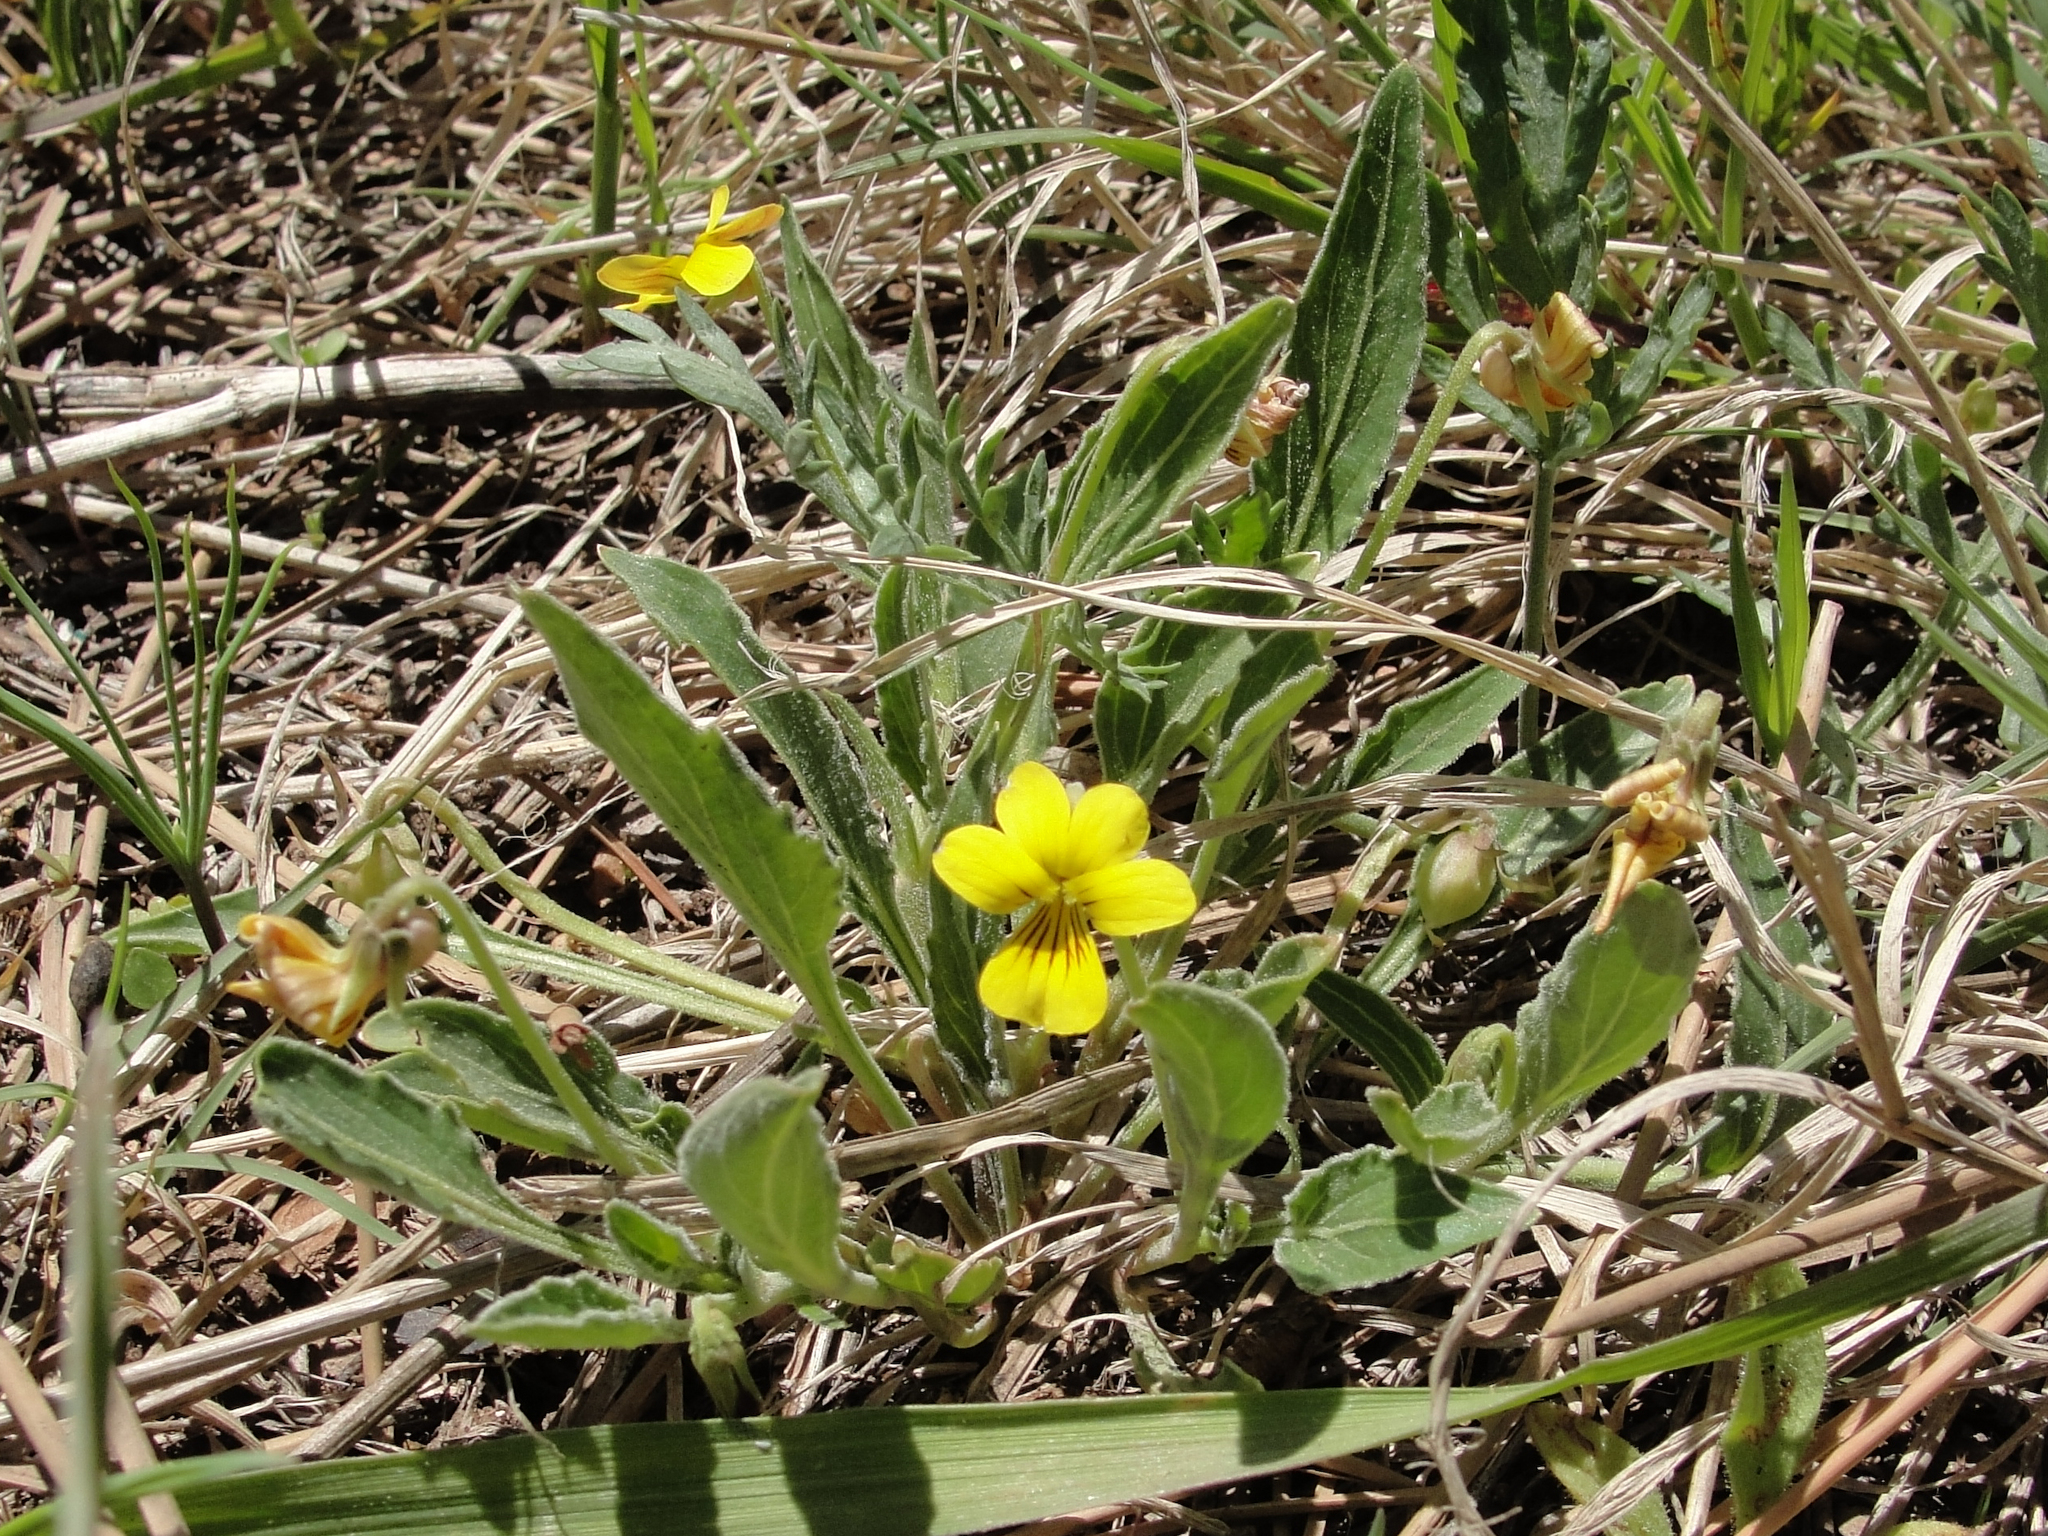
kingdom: Plantae
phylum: Tracheophyta
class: Magnoliopsida
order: Malpighiales
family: Violaceae
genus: Viola
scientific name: Viola nuttallii
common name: Yellow prairie violet
